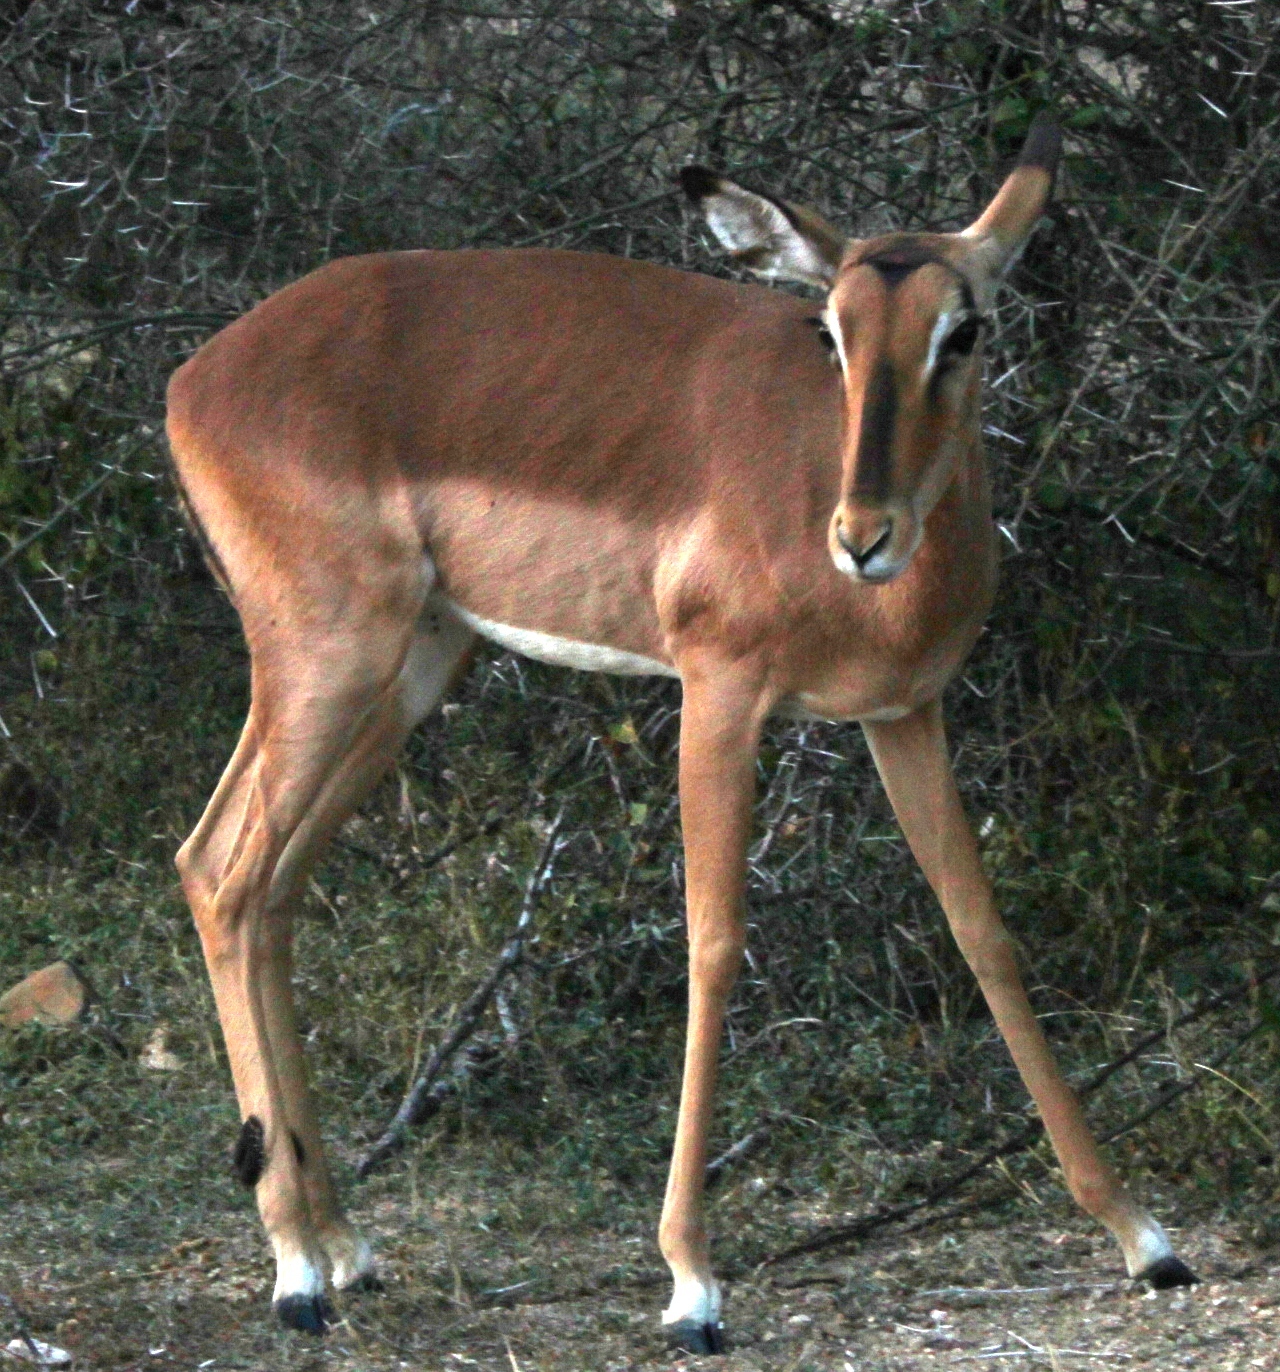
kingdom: Animalia
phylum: Chordata
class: Mammalia
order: Artiodactyla
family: Bovidae
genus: Aepyceros
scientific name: Aepyceros melampus
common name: Impala
